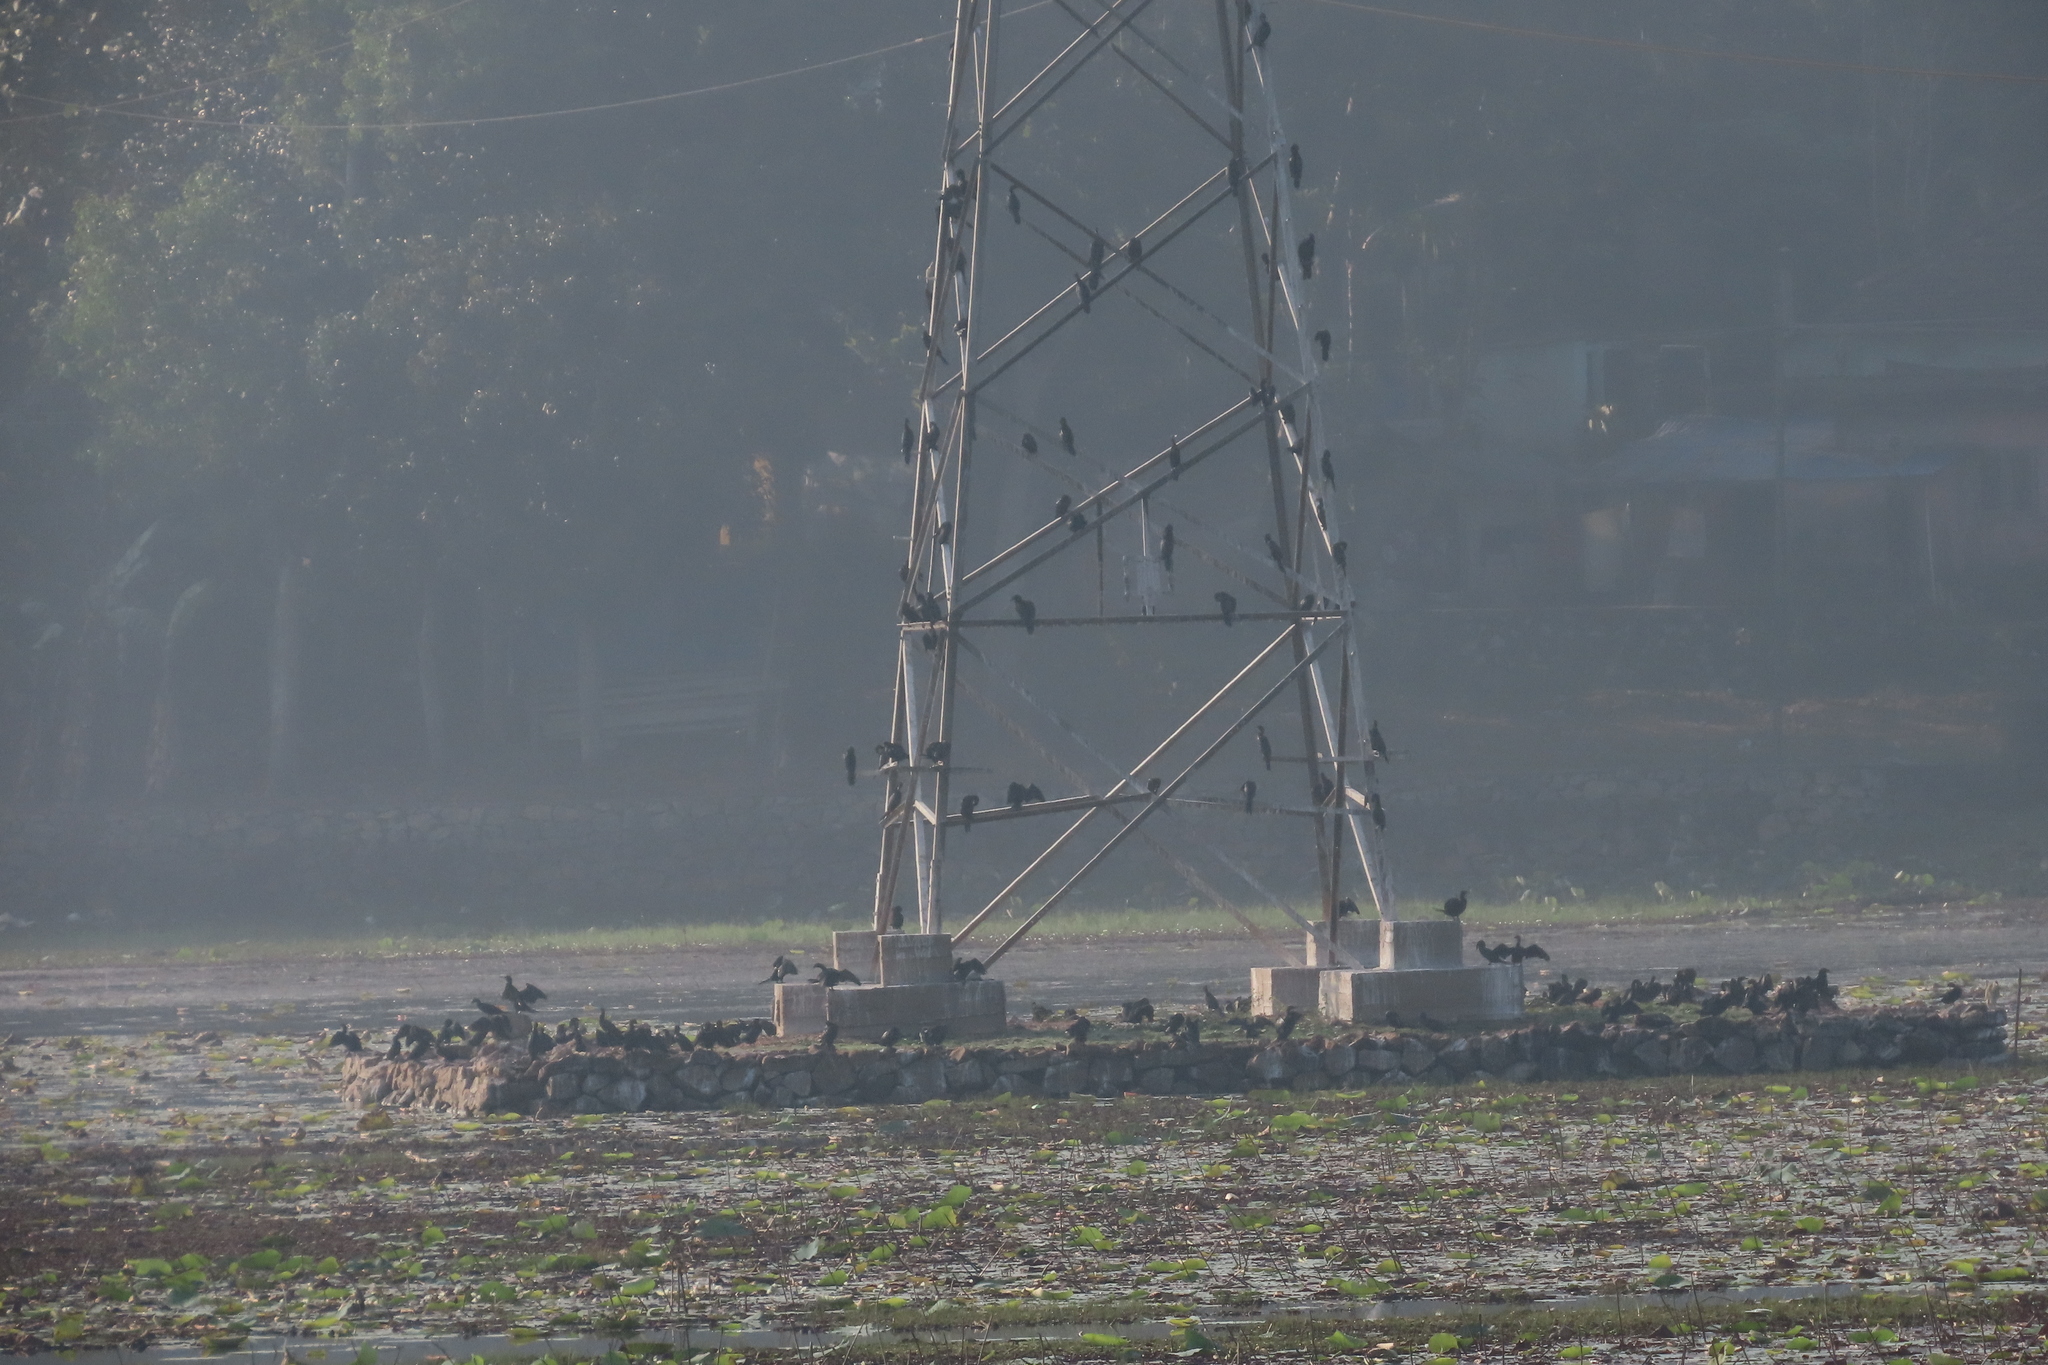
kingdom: Animalia
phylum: Chordata
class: Aves
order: Suliformes
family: Phalacrocoracidae
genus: Microcarbo
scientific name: Microcarbo niger
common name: Little cormorant
